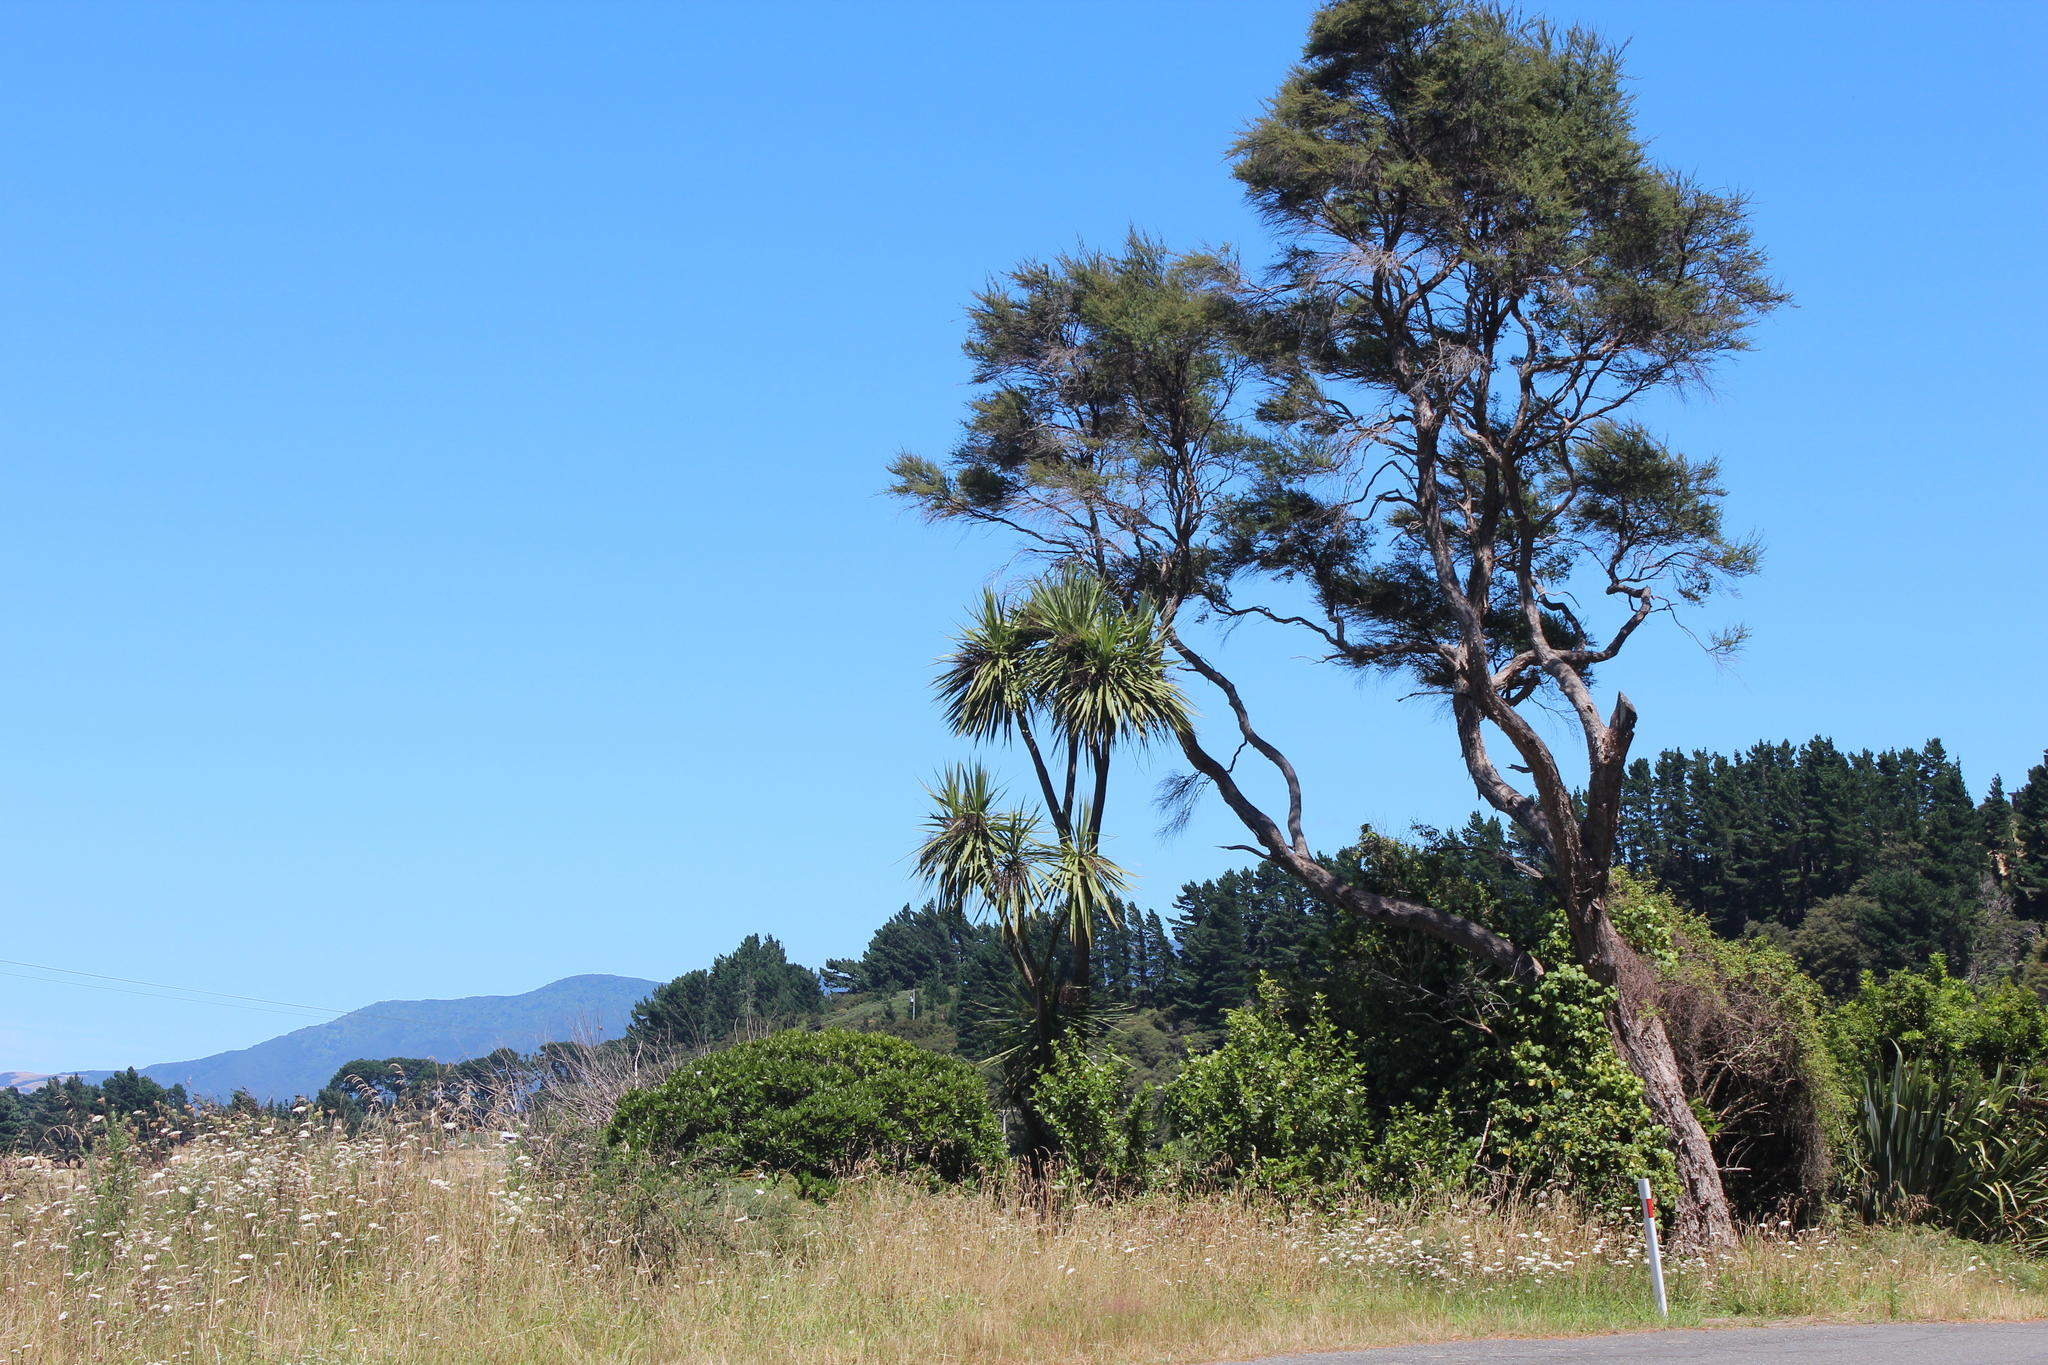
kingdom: Plantae
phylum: Tracheophyta
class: Magnoliopsida
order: Myrtales
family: Myrtaceae
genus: Leptospermum
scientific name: Leptospermum scoparium
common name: Broom tea-tree
